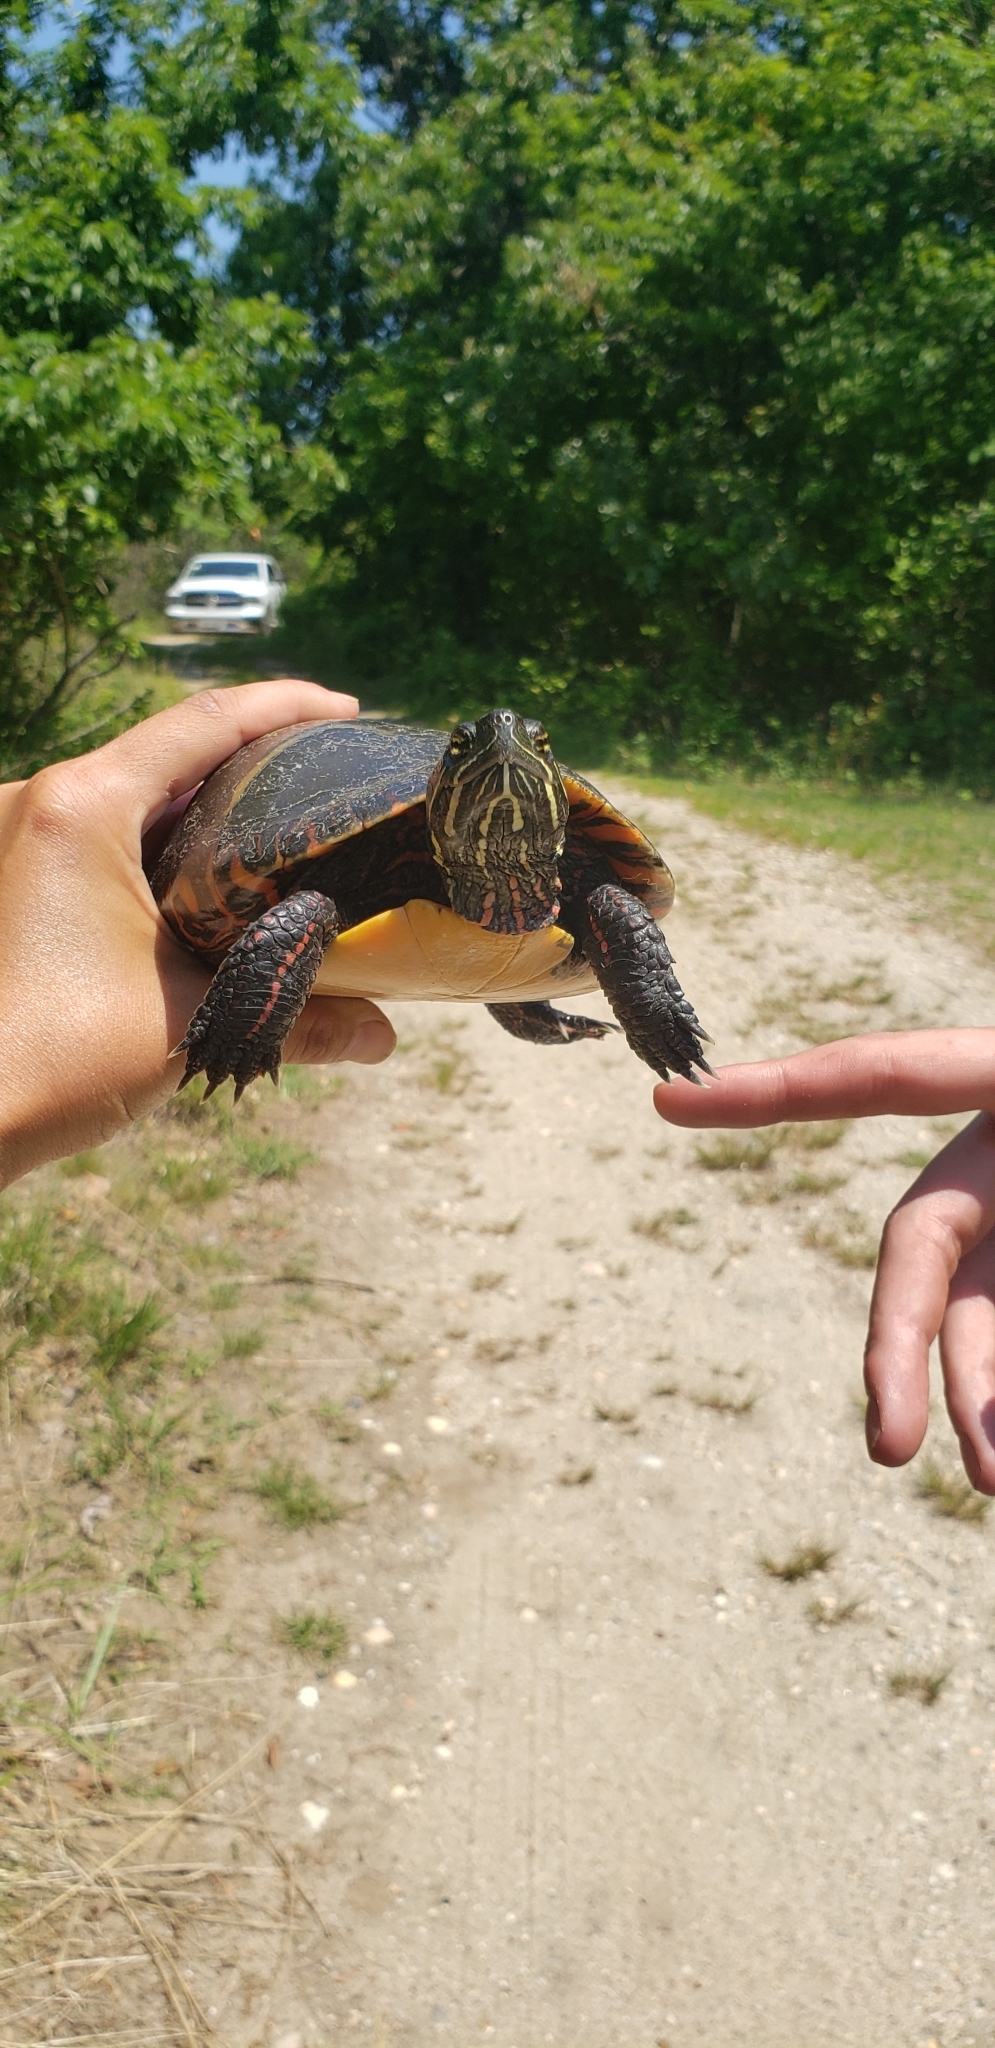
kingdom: Animalia
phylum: Chordata
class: Testudines
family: Emydidae
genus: Chrysemys
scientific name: Chrysemys picta
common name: Painted turtle
